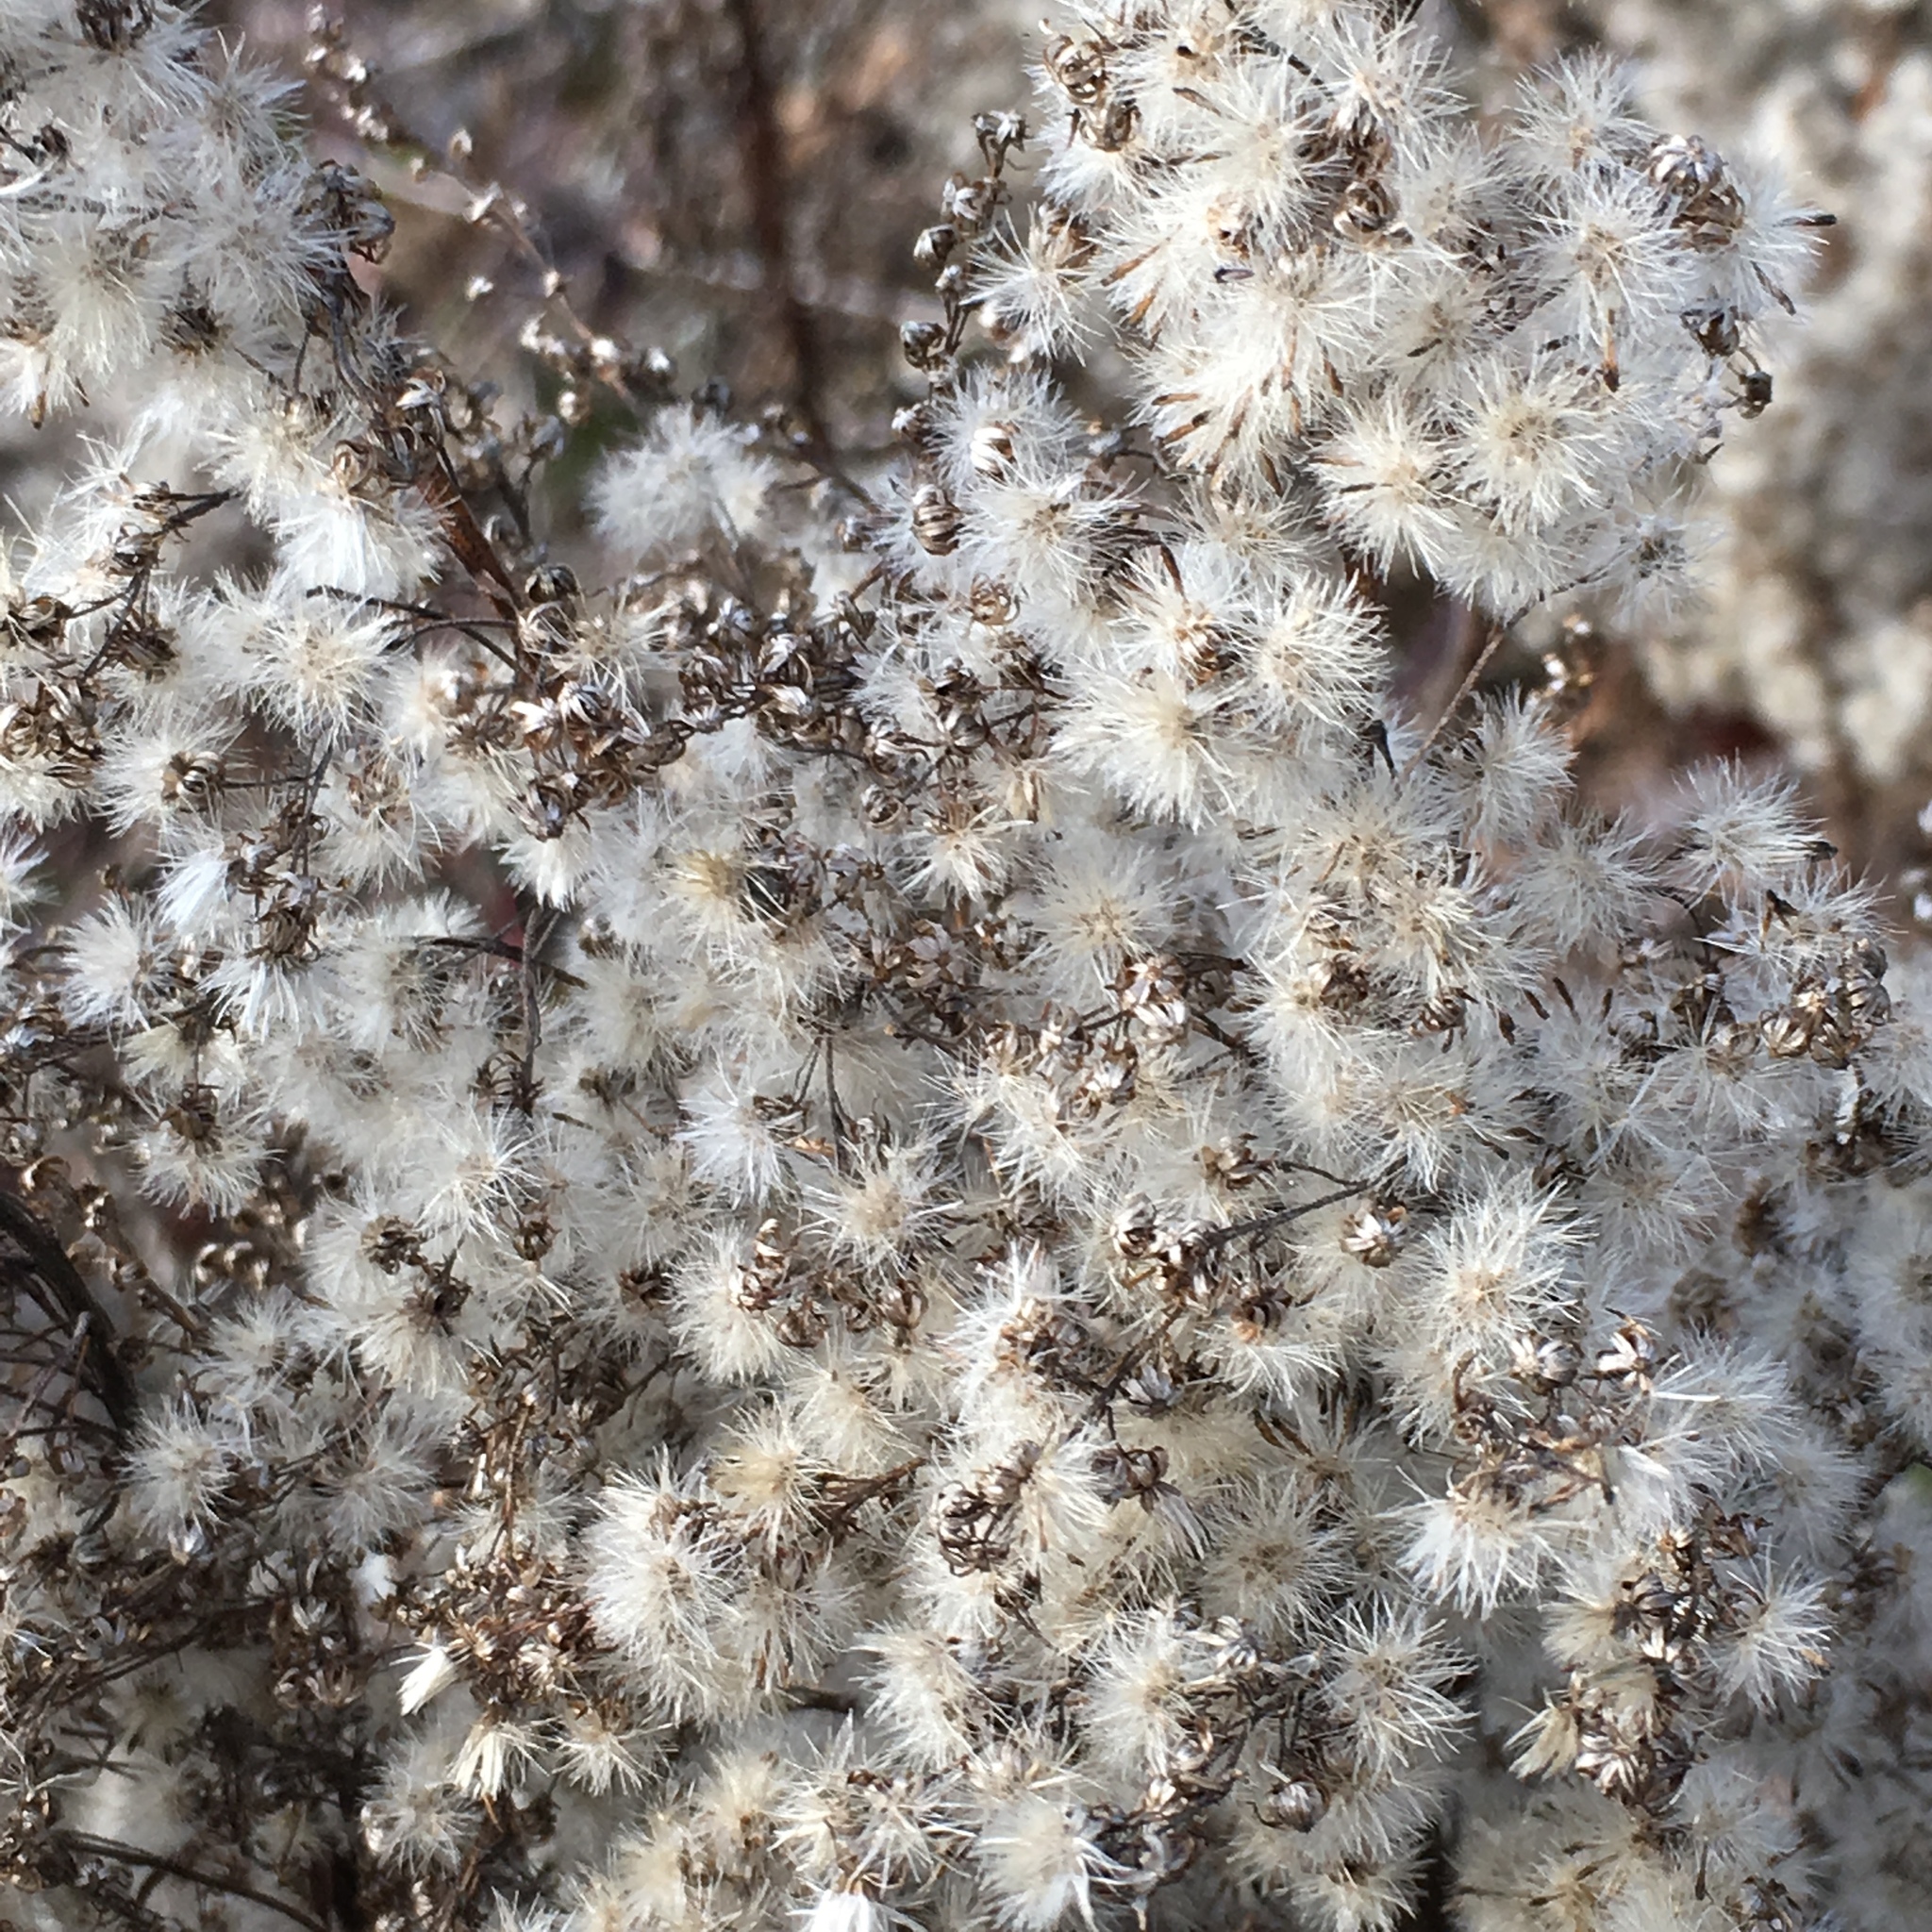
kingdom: Plantae
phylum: Tracheophyta
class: Magnoliopsida
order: Asterales
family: Asteraceae
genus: Solidago
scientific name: Solidago lepida
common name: Western canada goldenrod
